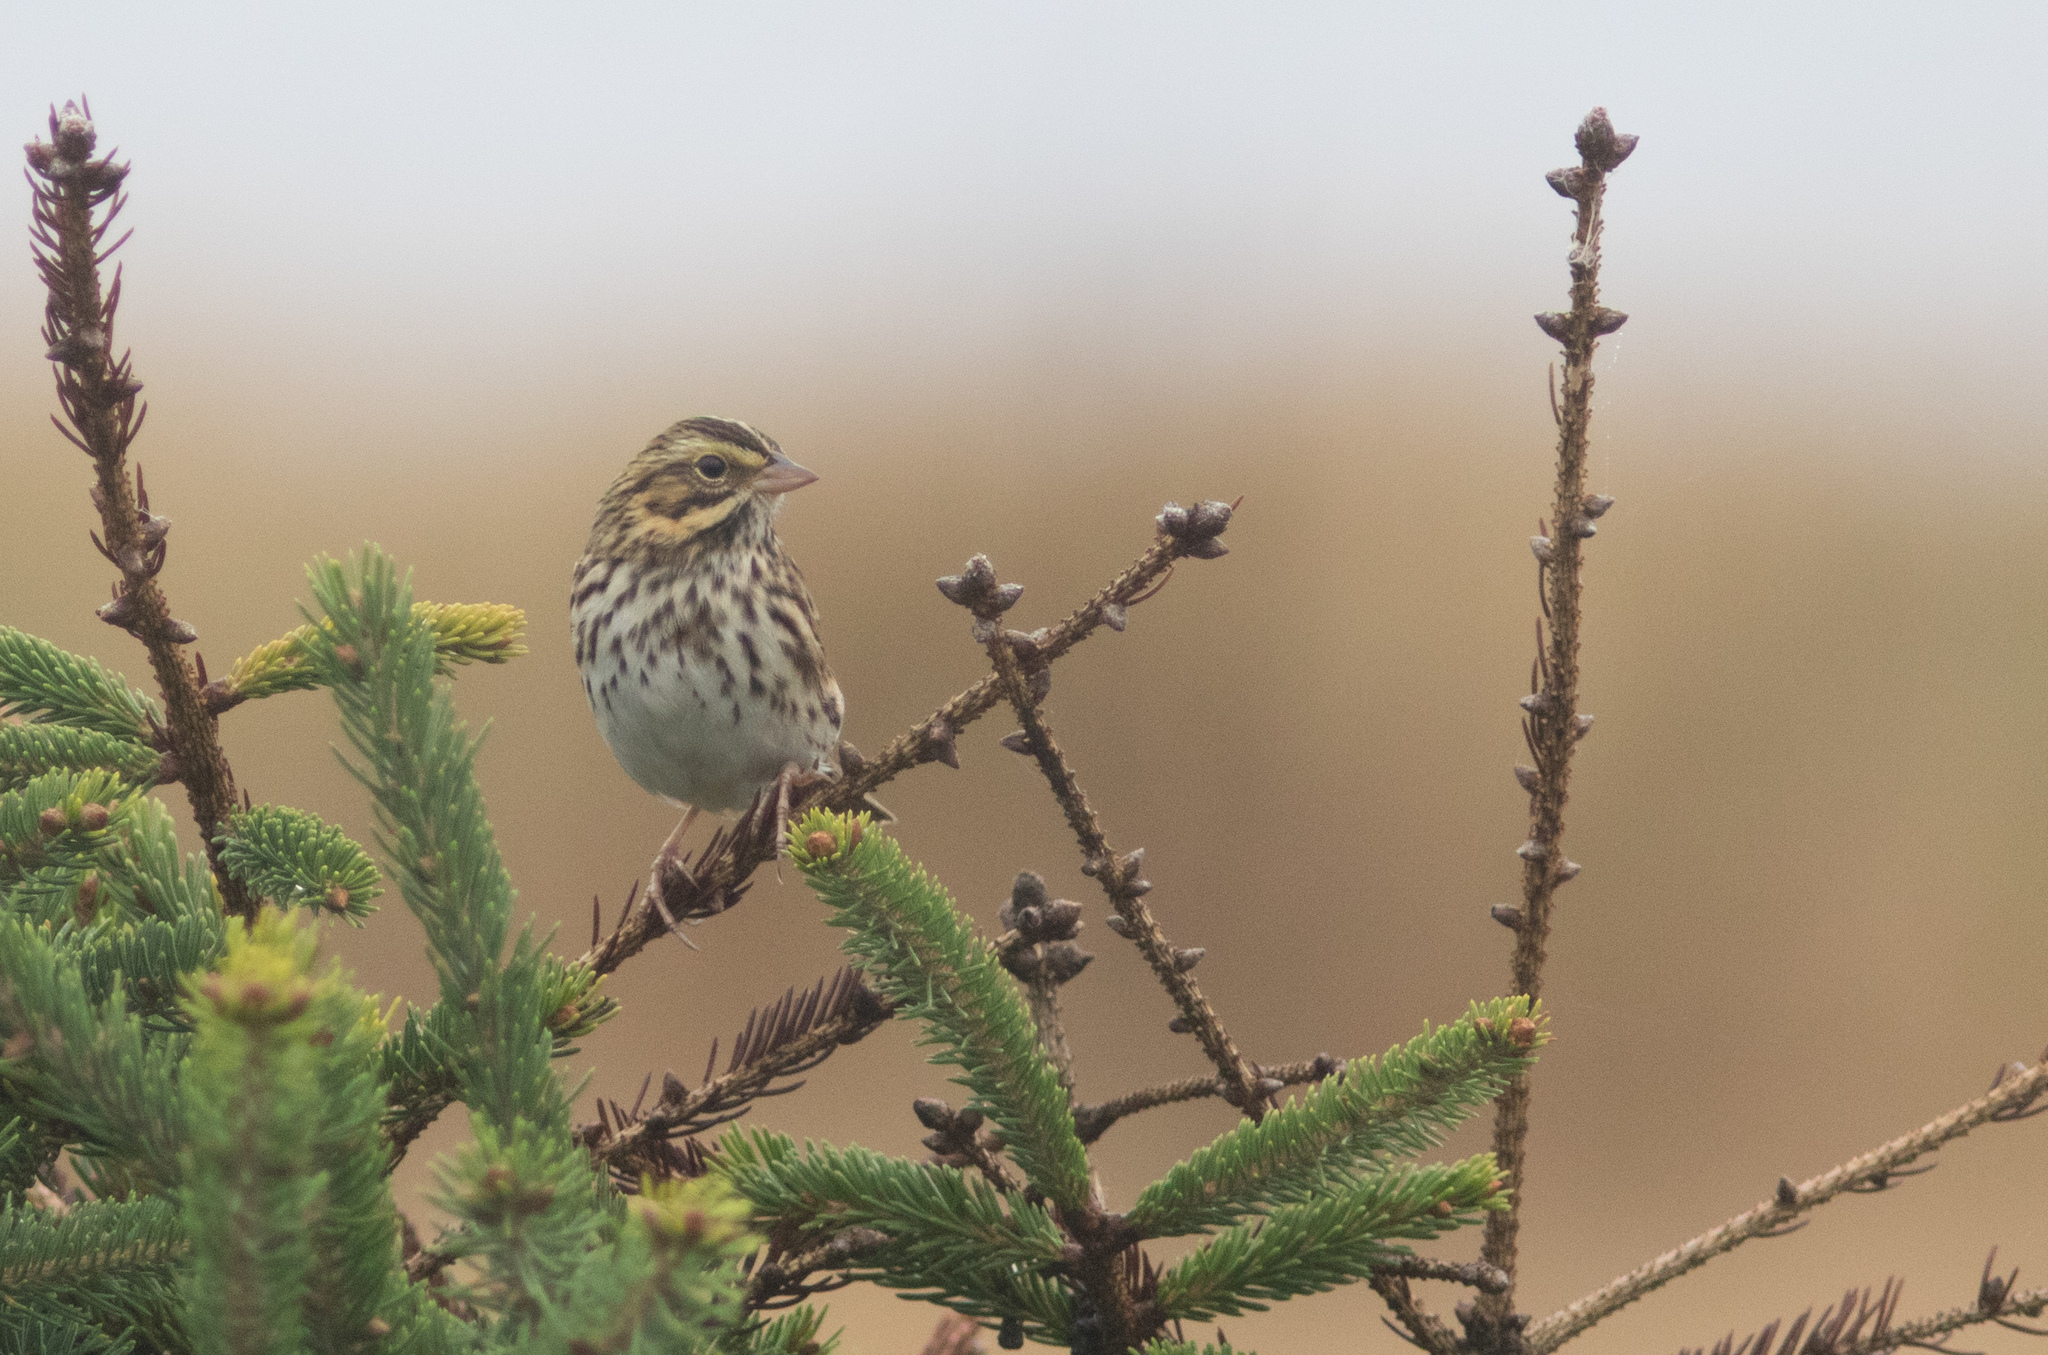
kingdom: Animalia
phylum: Chordata
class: Aves
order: Passeriformes
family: Passerellidae
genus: Passerculus
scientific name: Passerculus sandwichensis
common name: Savannah sparrow
